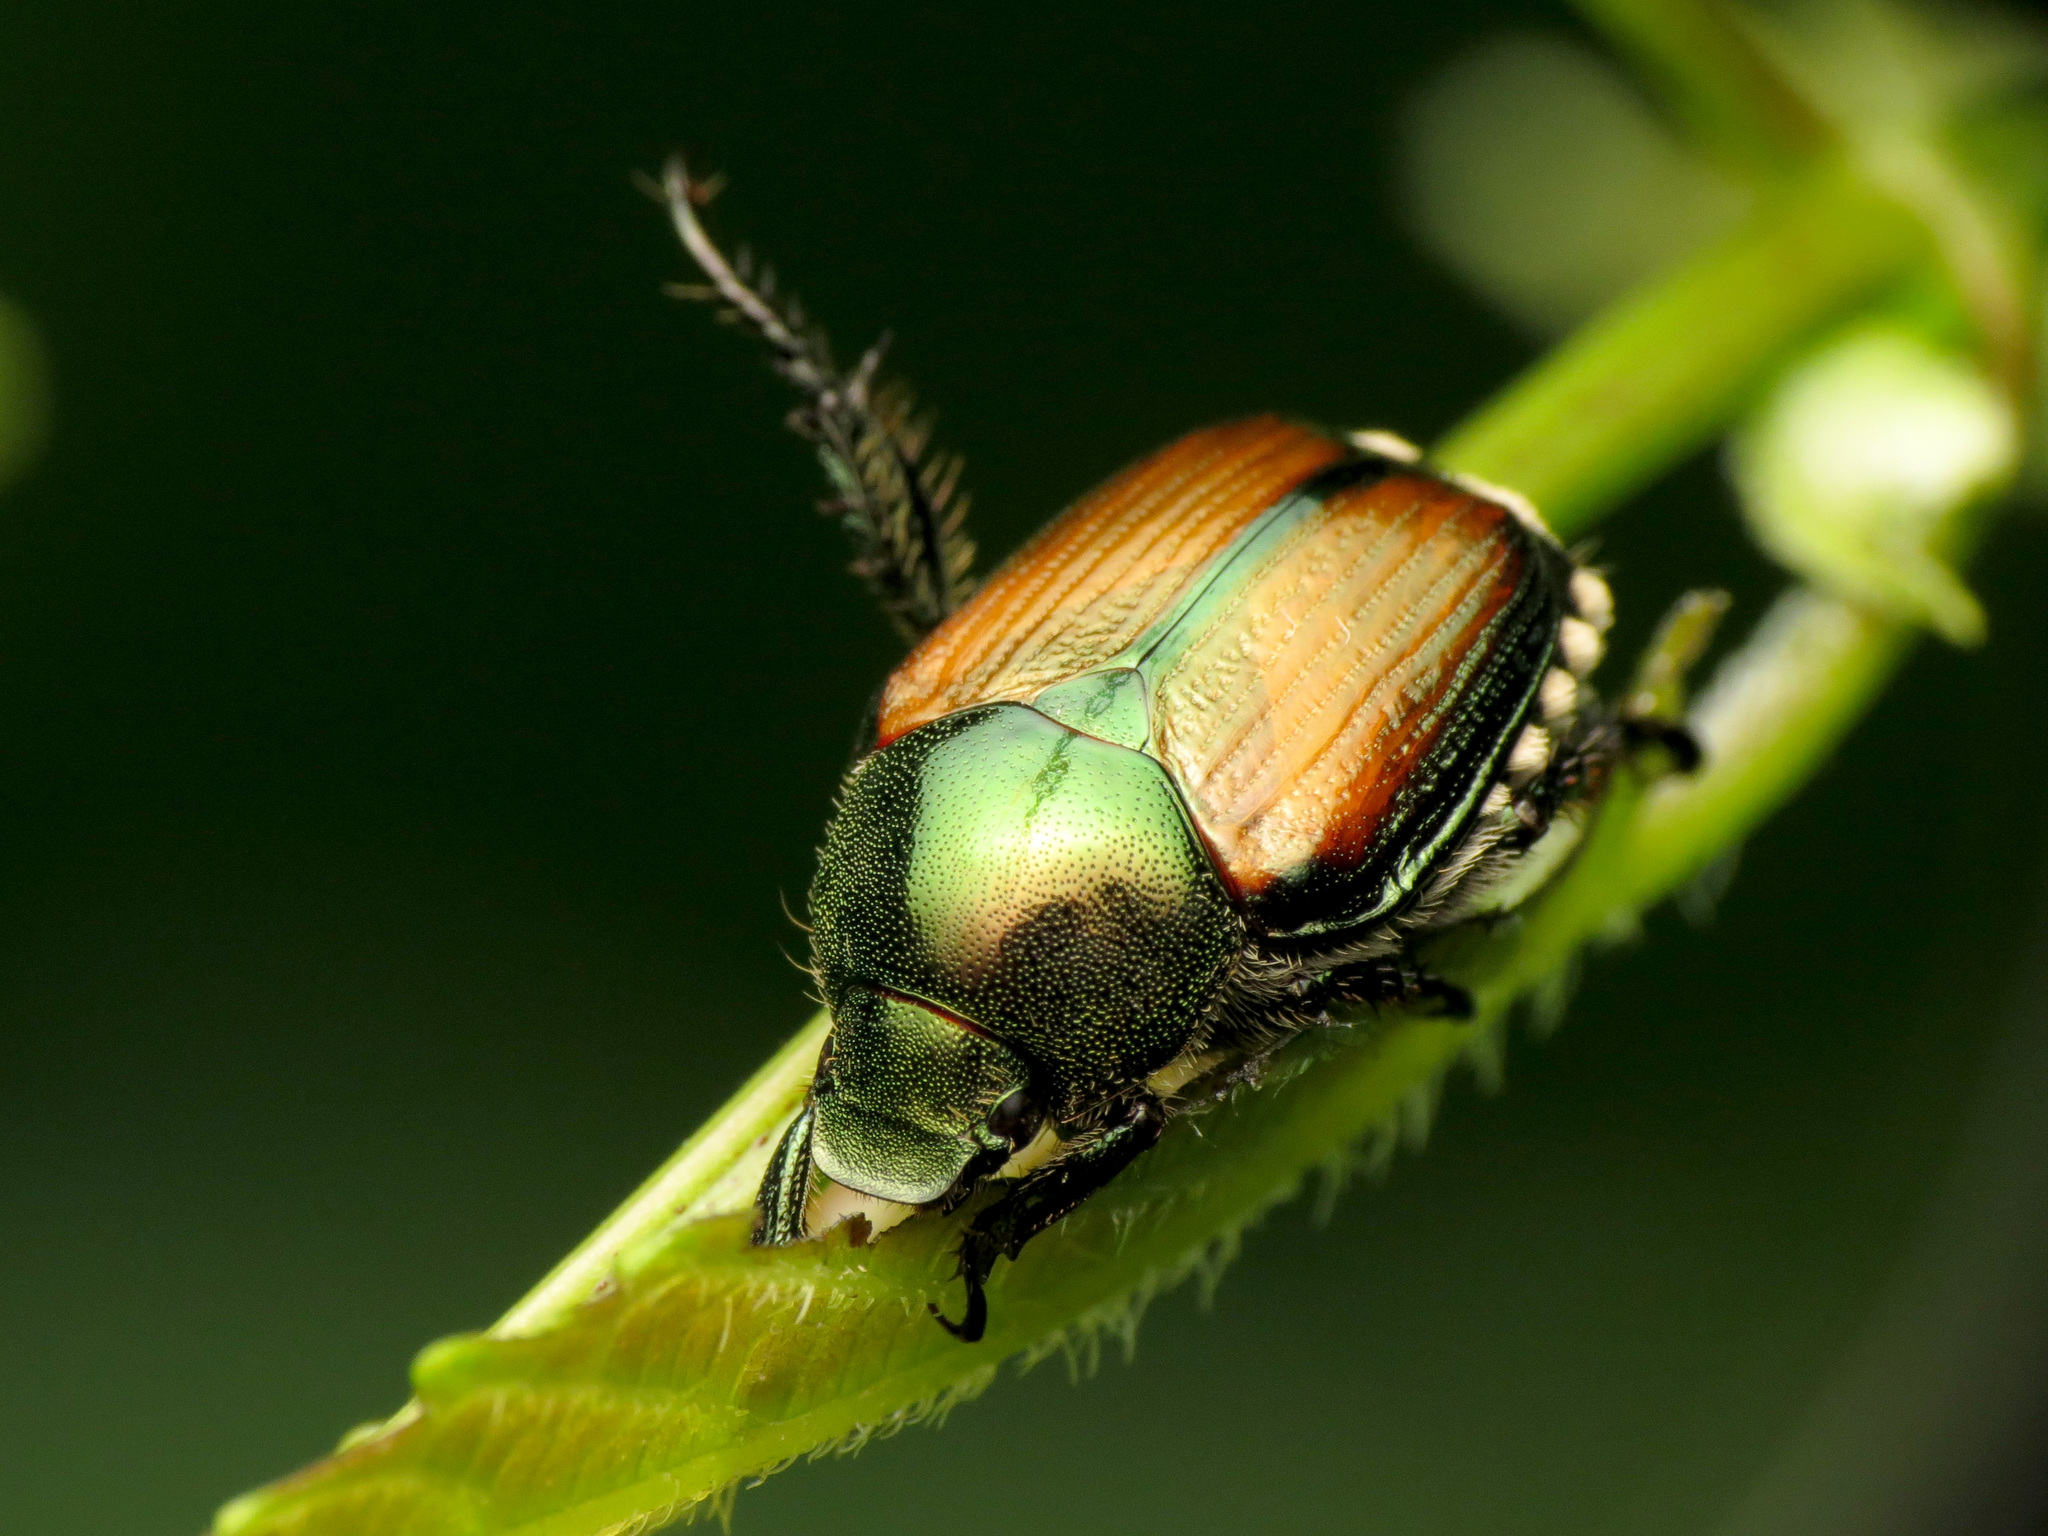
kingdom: Animalia
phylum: Arthropoda
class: Insecta
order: Coleoptera
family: Scarabaeidae
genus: Popillia
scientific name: Popillia japonica
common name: Japanese beetle
